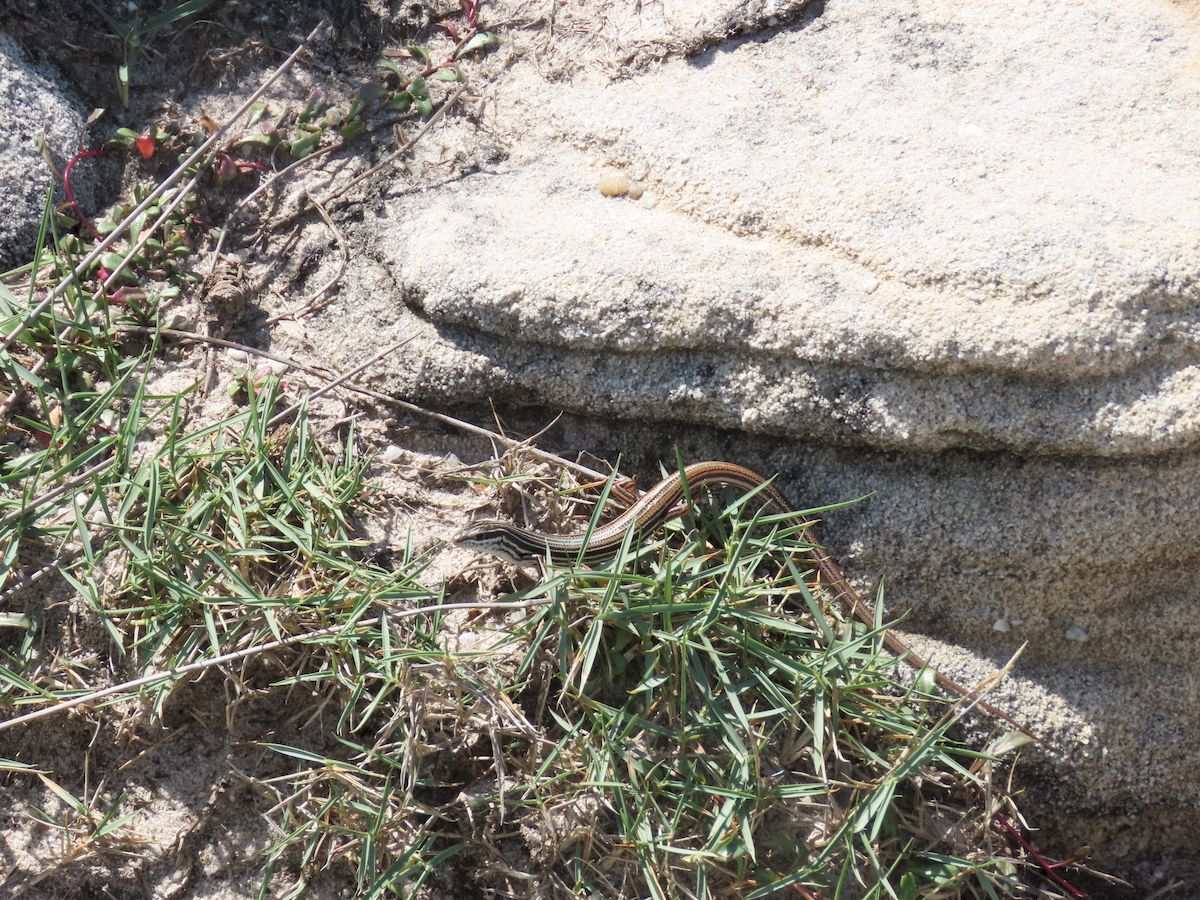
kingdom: Animalia
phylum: Chordata
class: Squamata
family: Scincidae
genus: Ctenotus
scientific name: Ctenotus taeniolatus
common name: Copper-tailed skink
